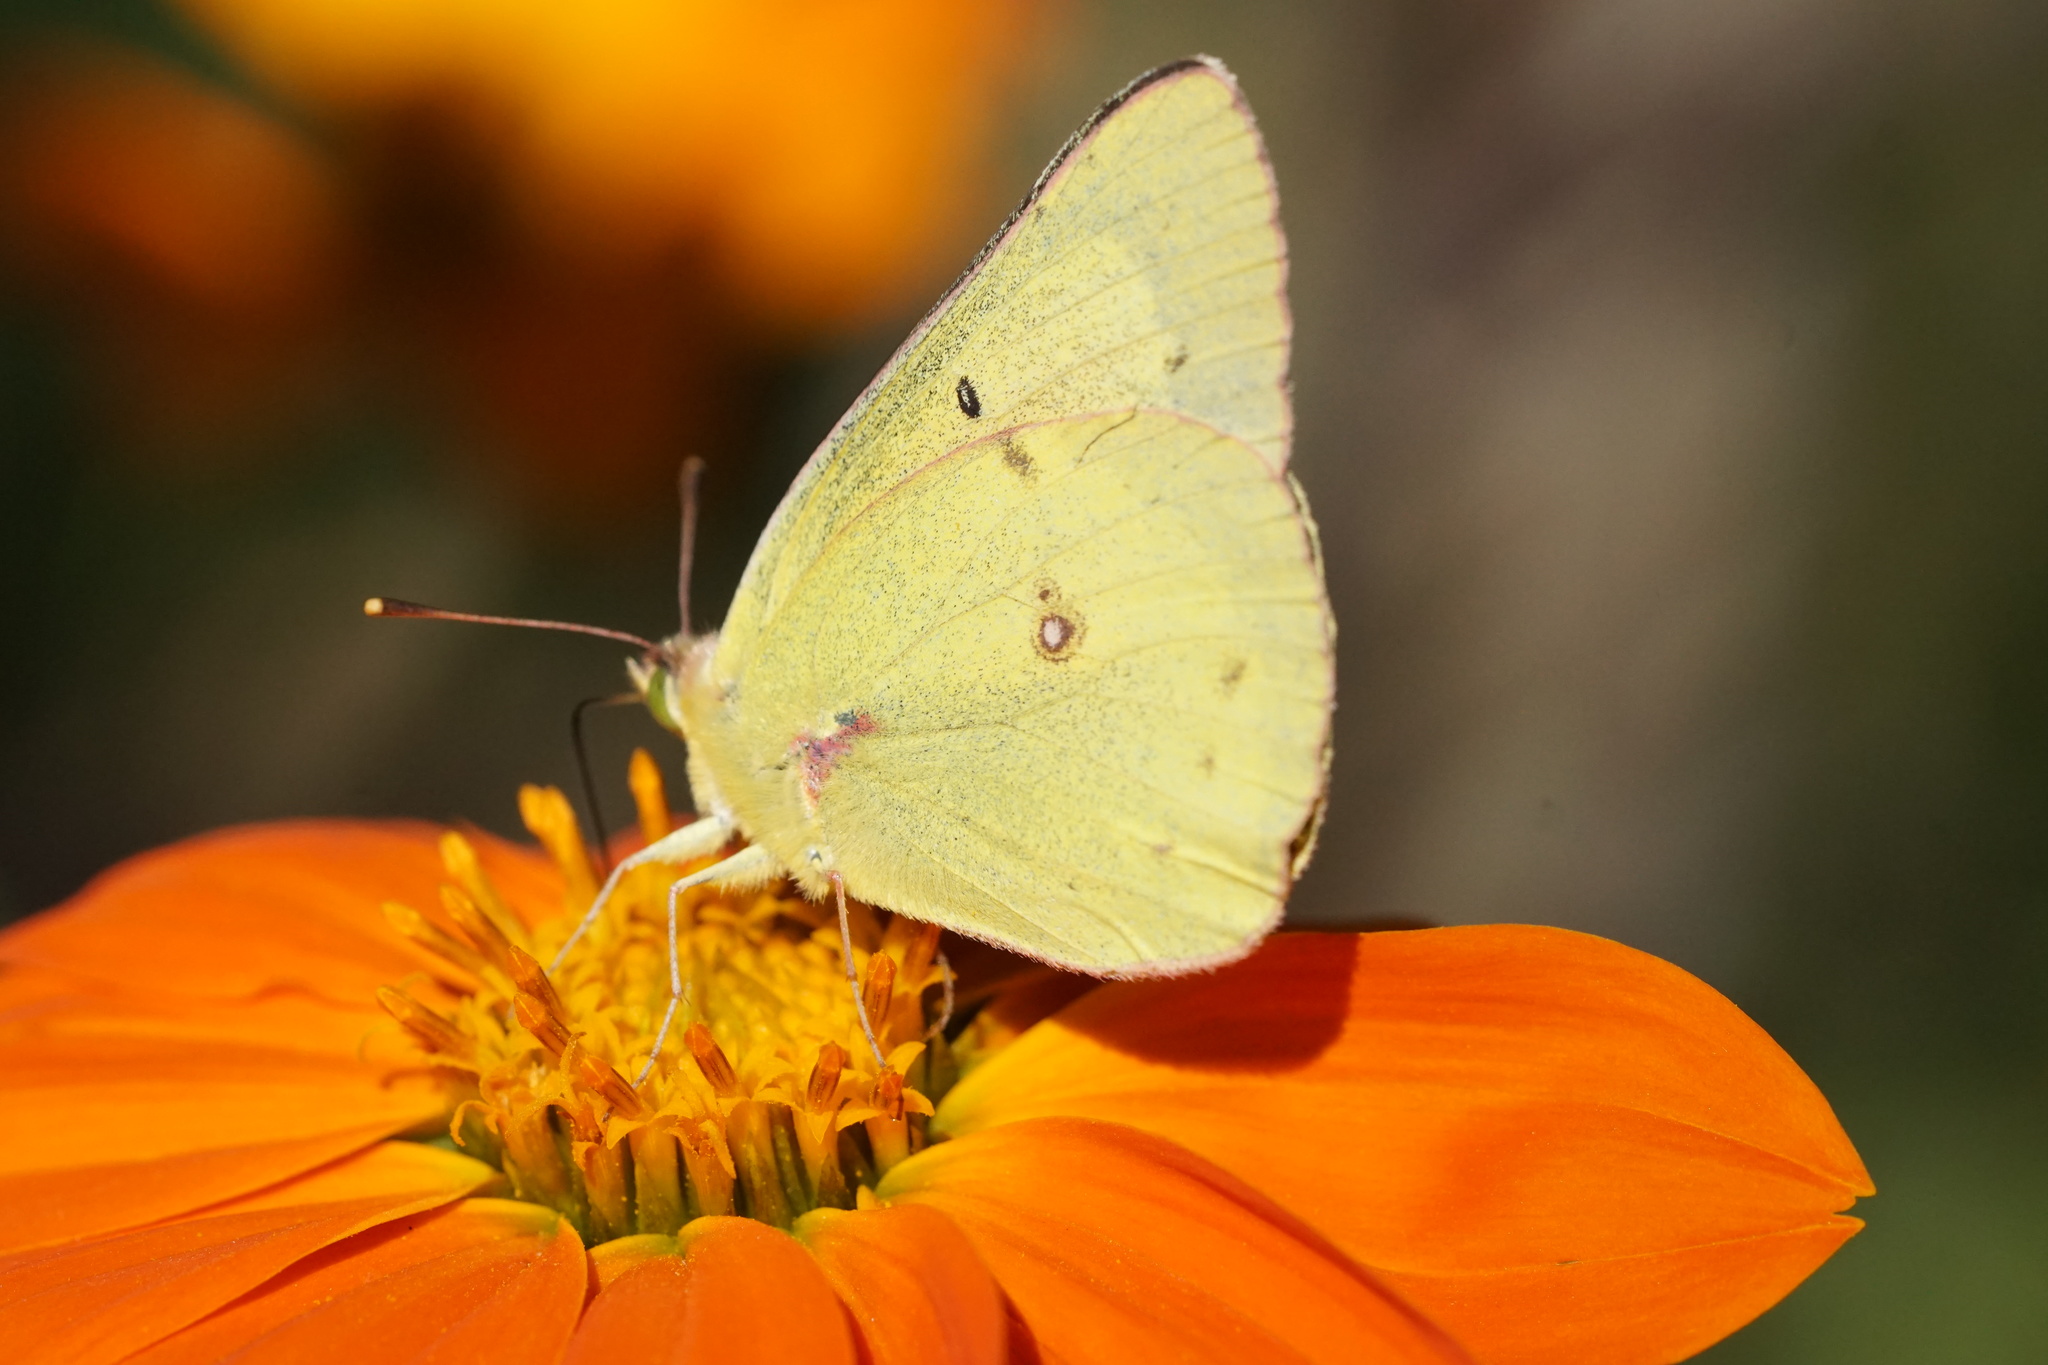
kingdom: Animalia
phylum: Arthropoda
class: Insecta
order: Lepidoptera
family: Pieridae
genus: Colias
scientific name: Colias philodice
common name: Clouded sulphur
